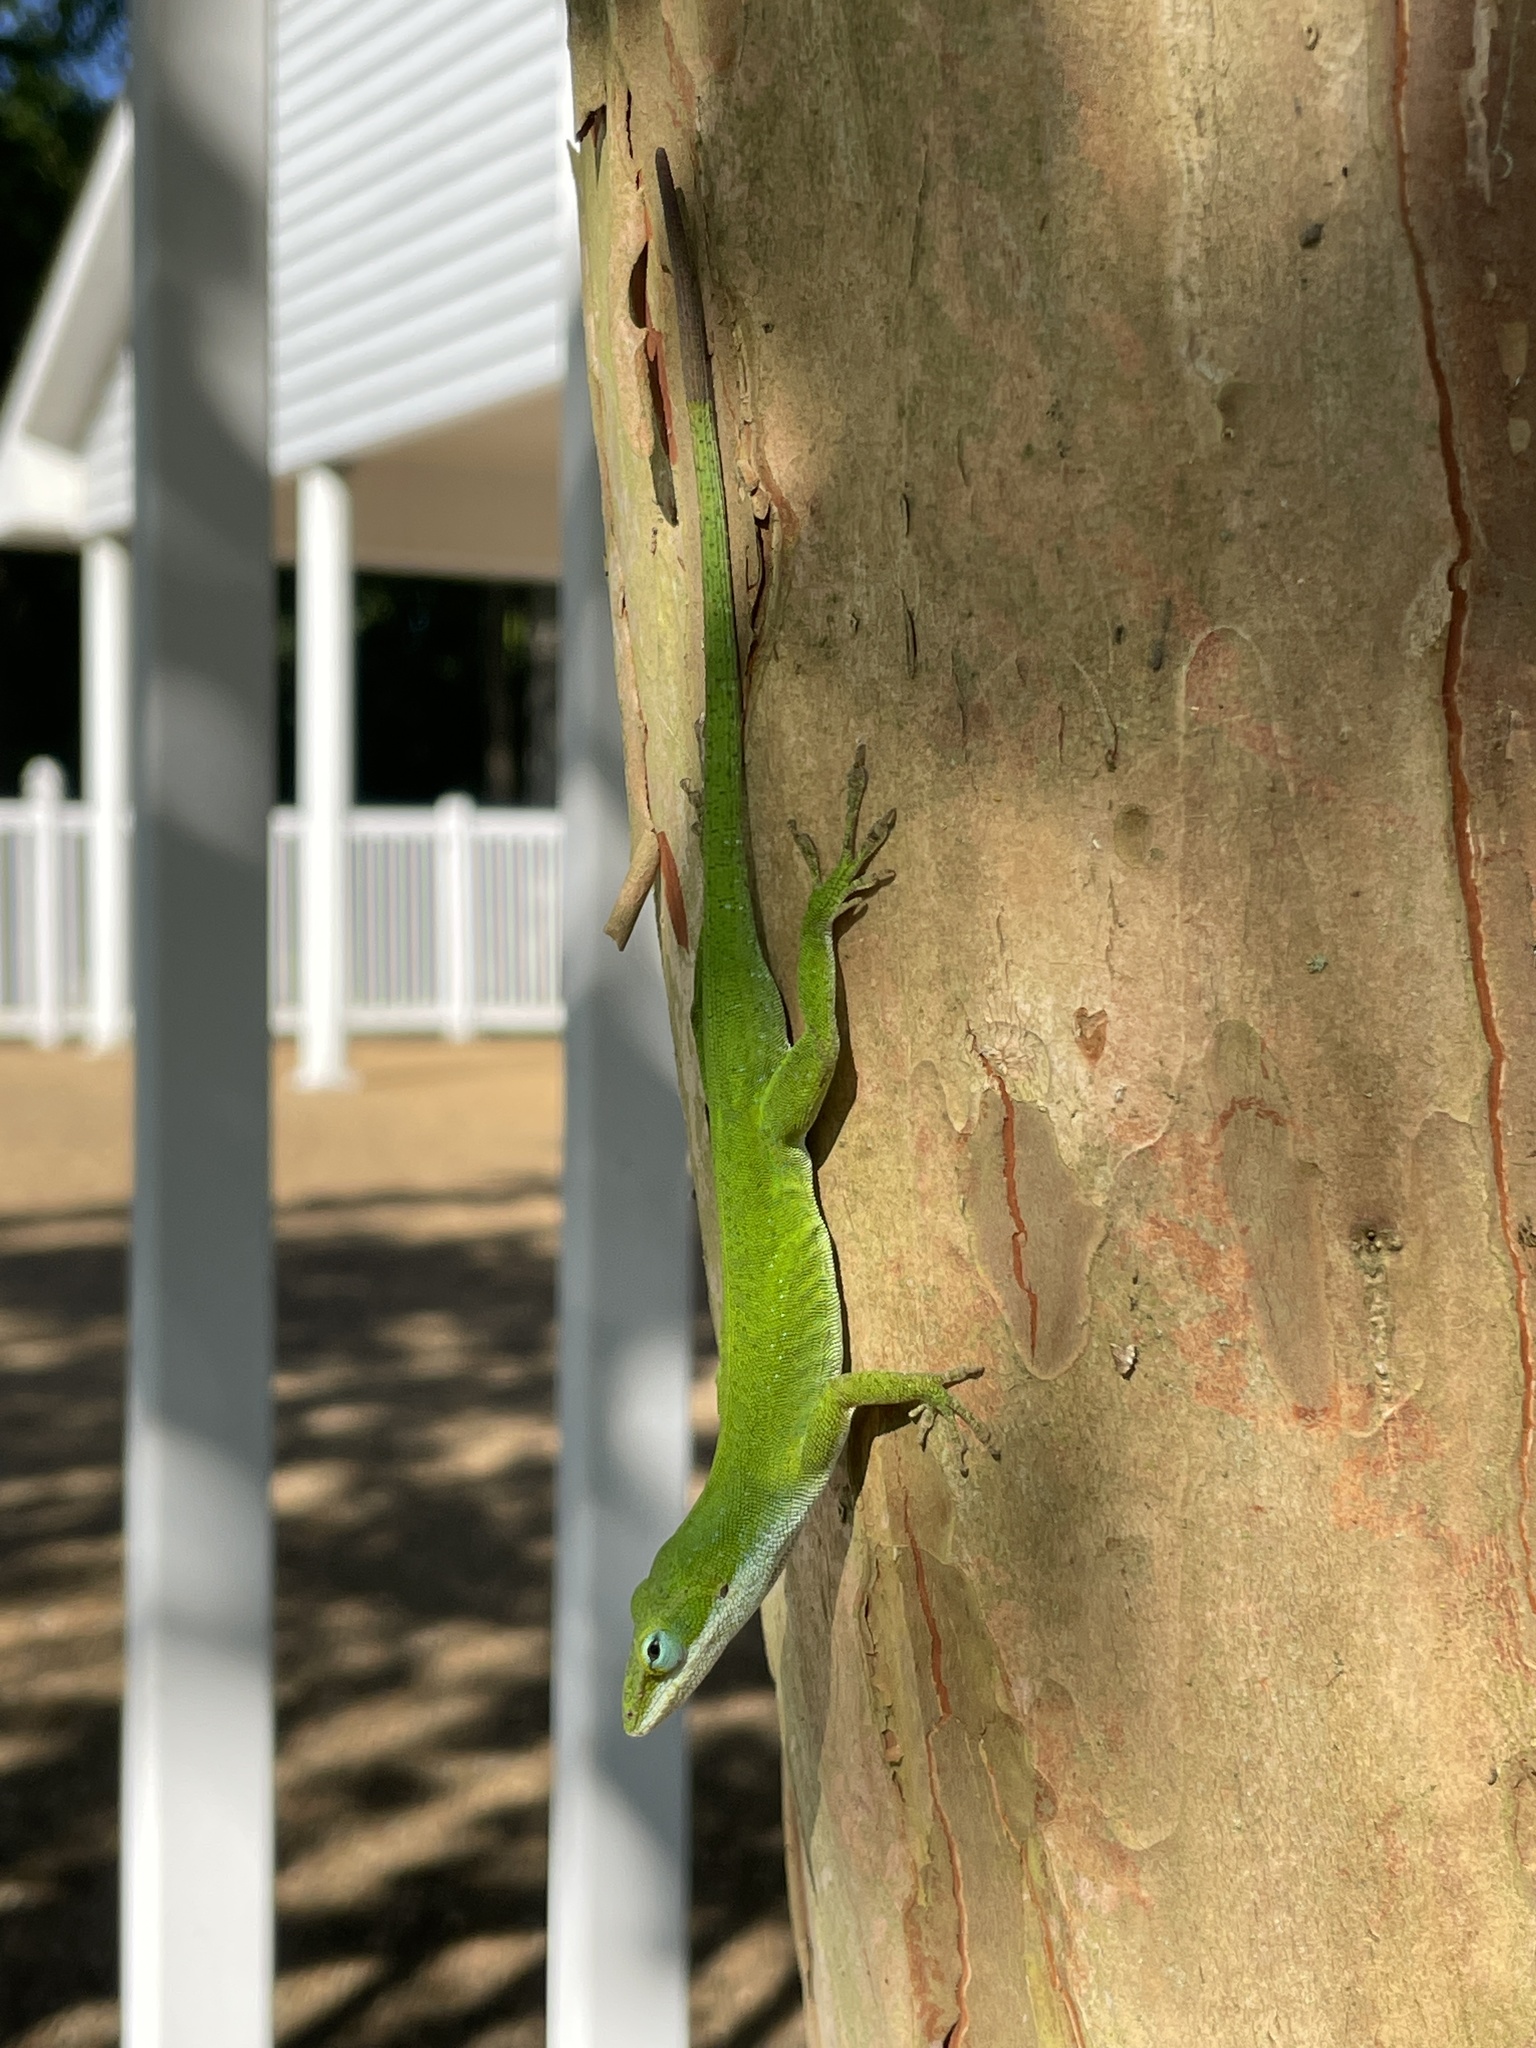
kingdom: Animalia
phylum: Chordata
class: Squamata
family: Dactyloidae
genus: Anolis
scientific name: Anolis carolinensis
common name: Green anole
